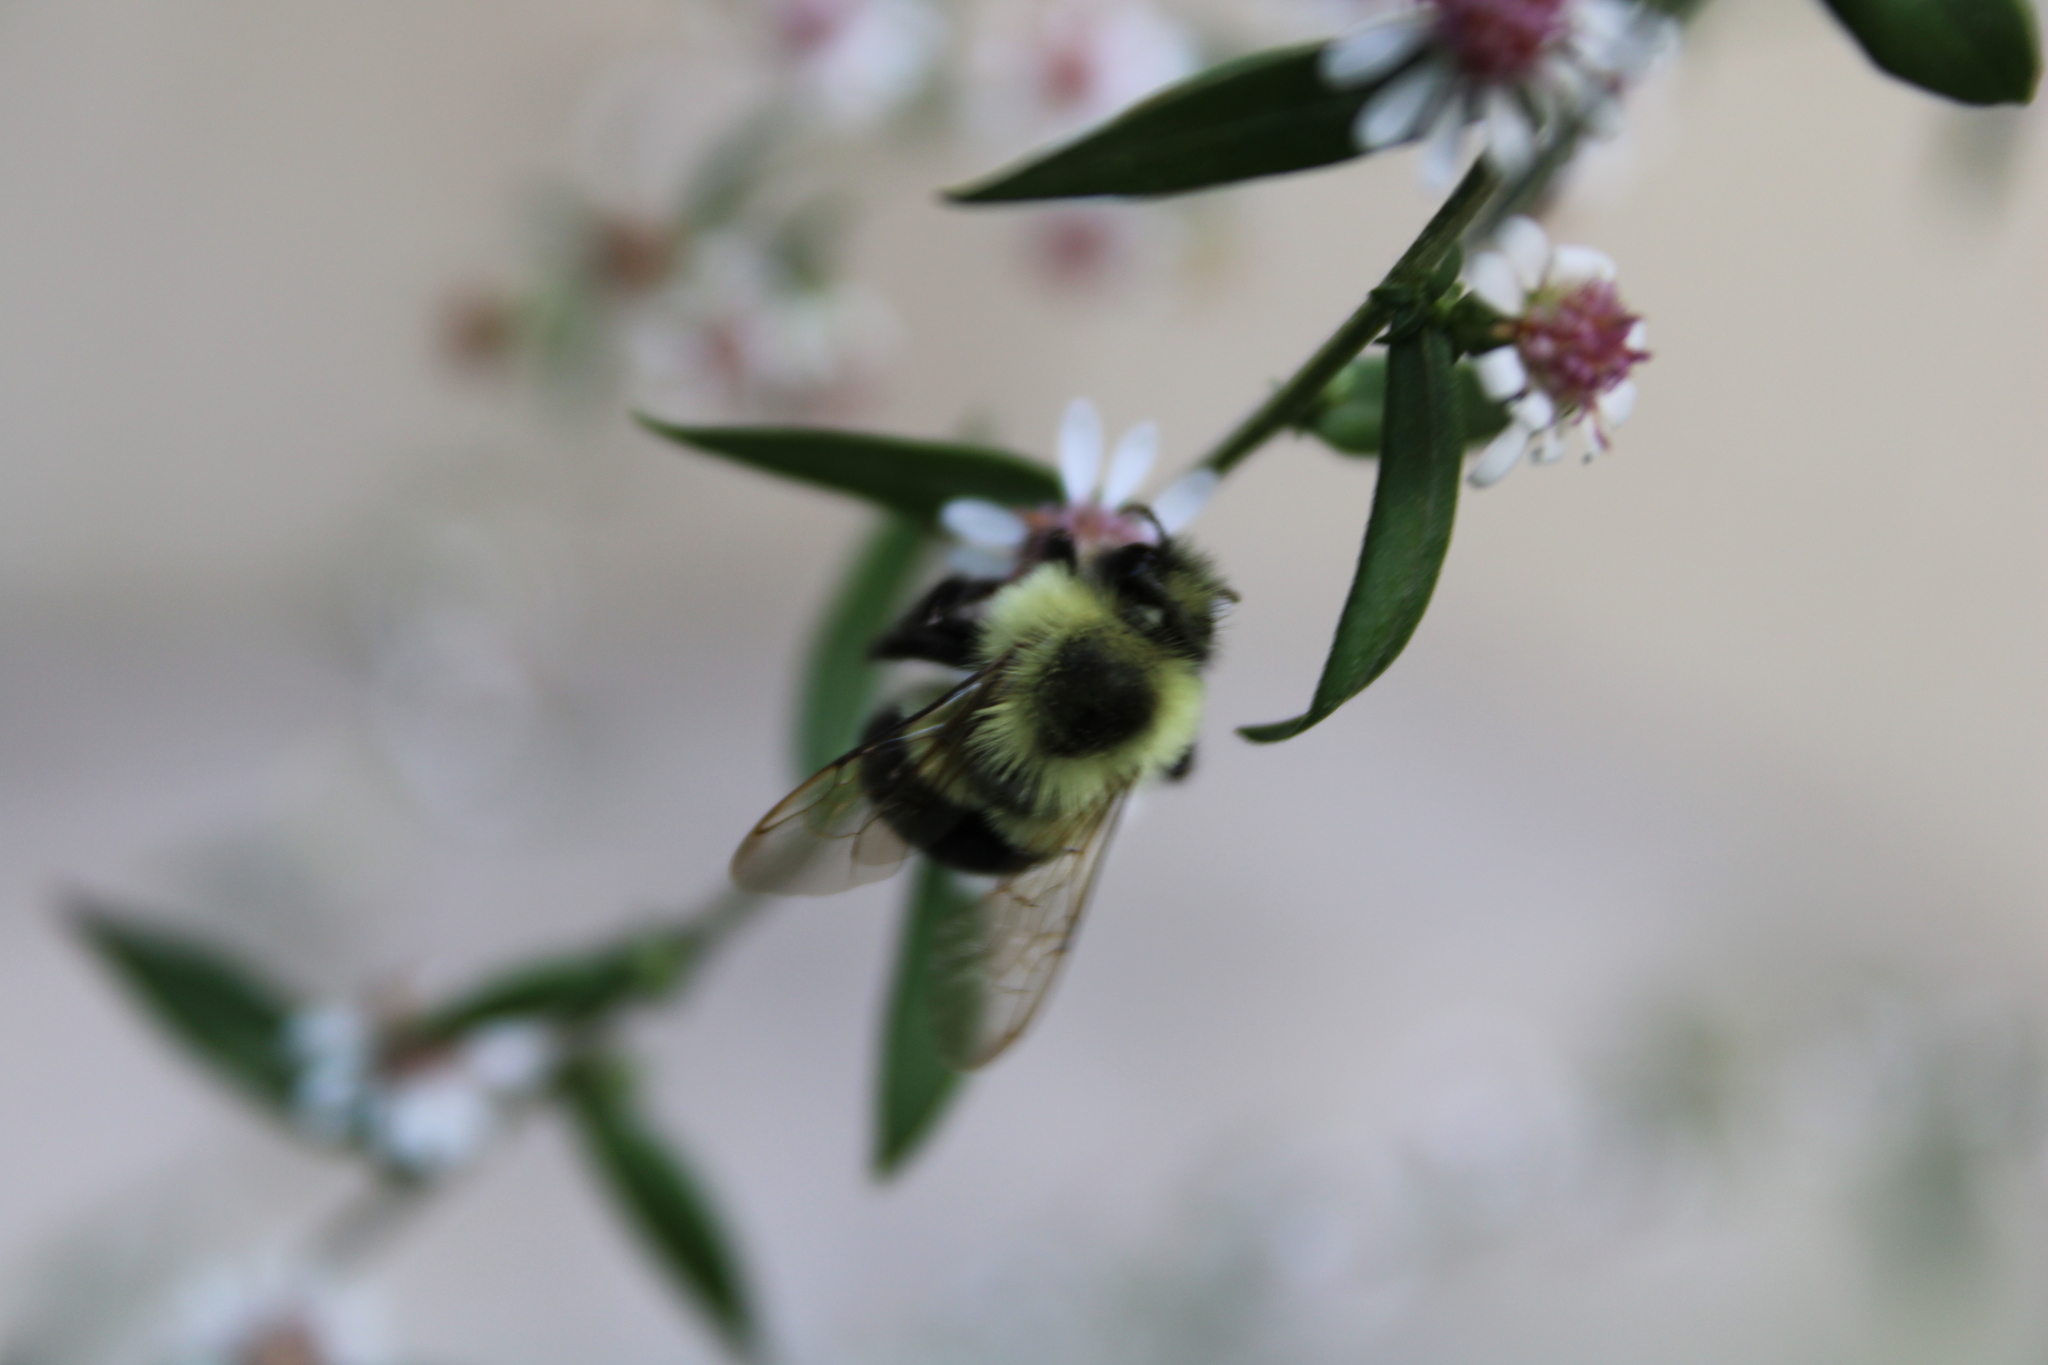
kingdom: Animalia
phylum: Arthropoda
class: Insecta
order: Hymenoptera
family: Apidae
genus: Bombus
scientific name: Bombus impatiens
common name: Common eastern bumble bee
